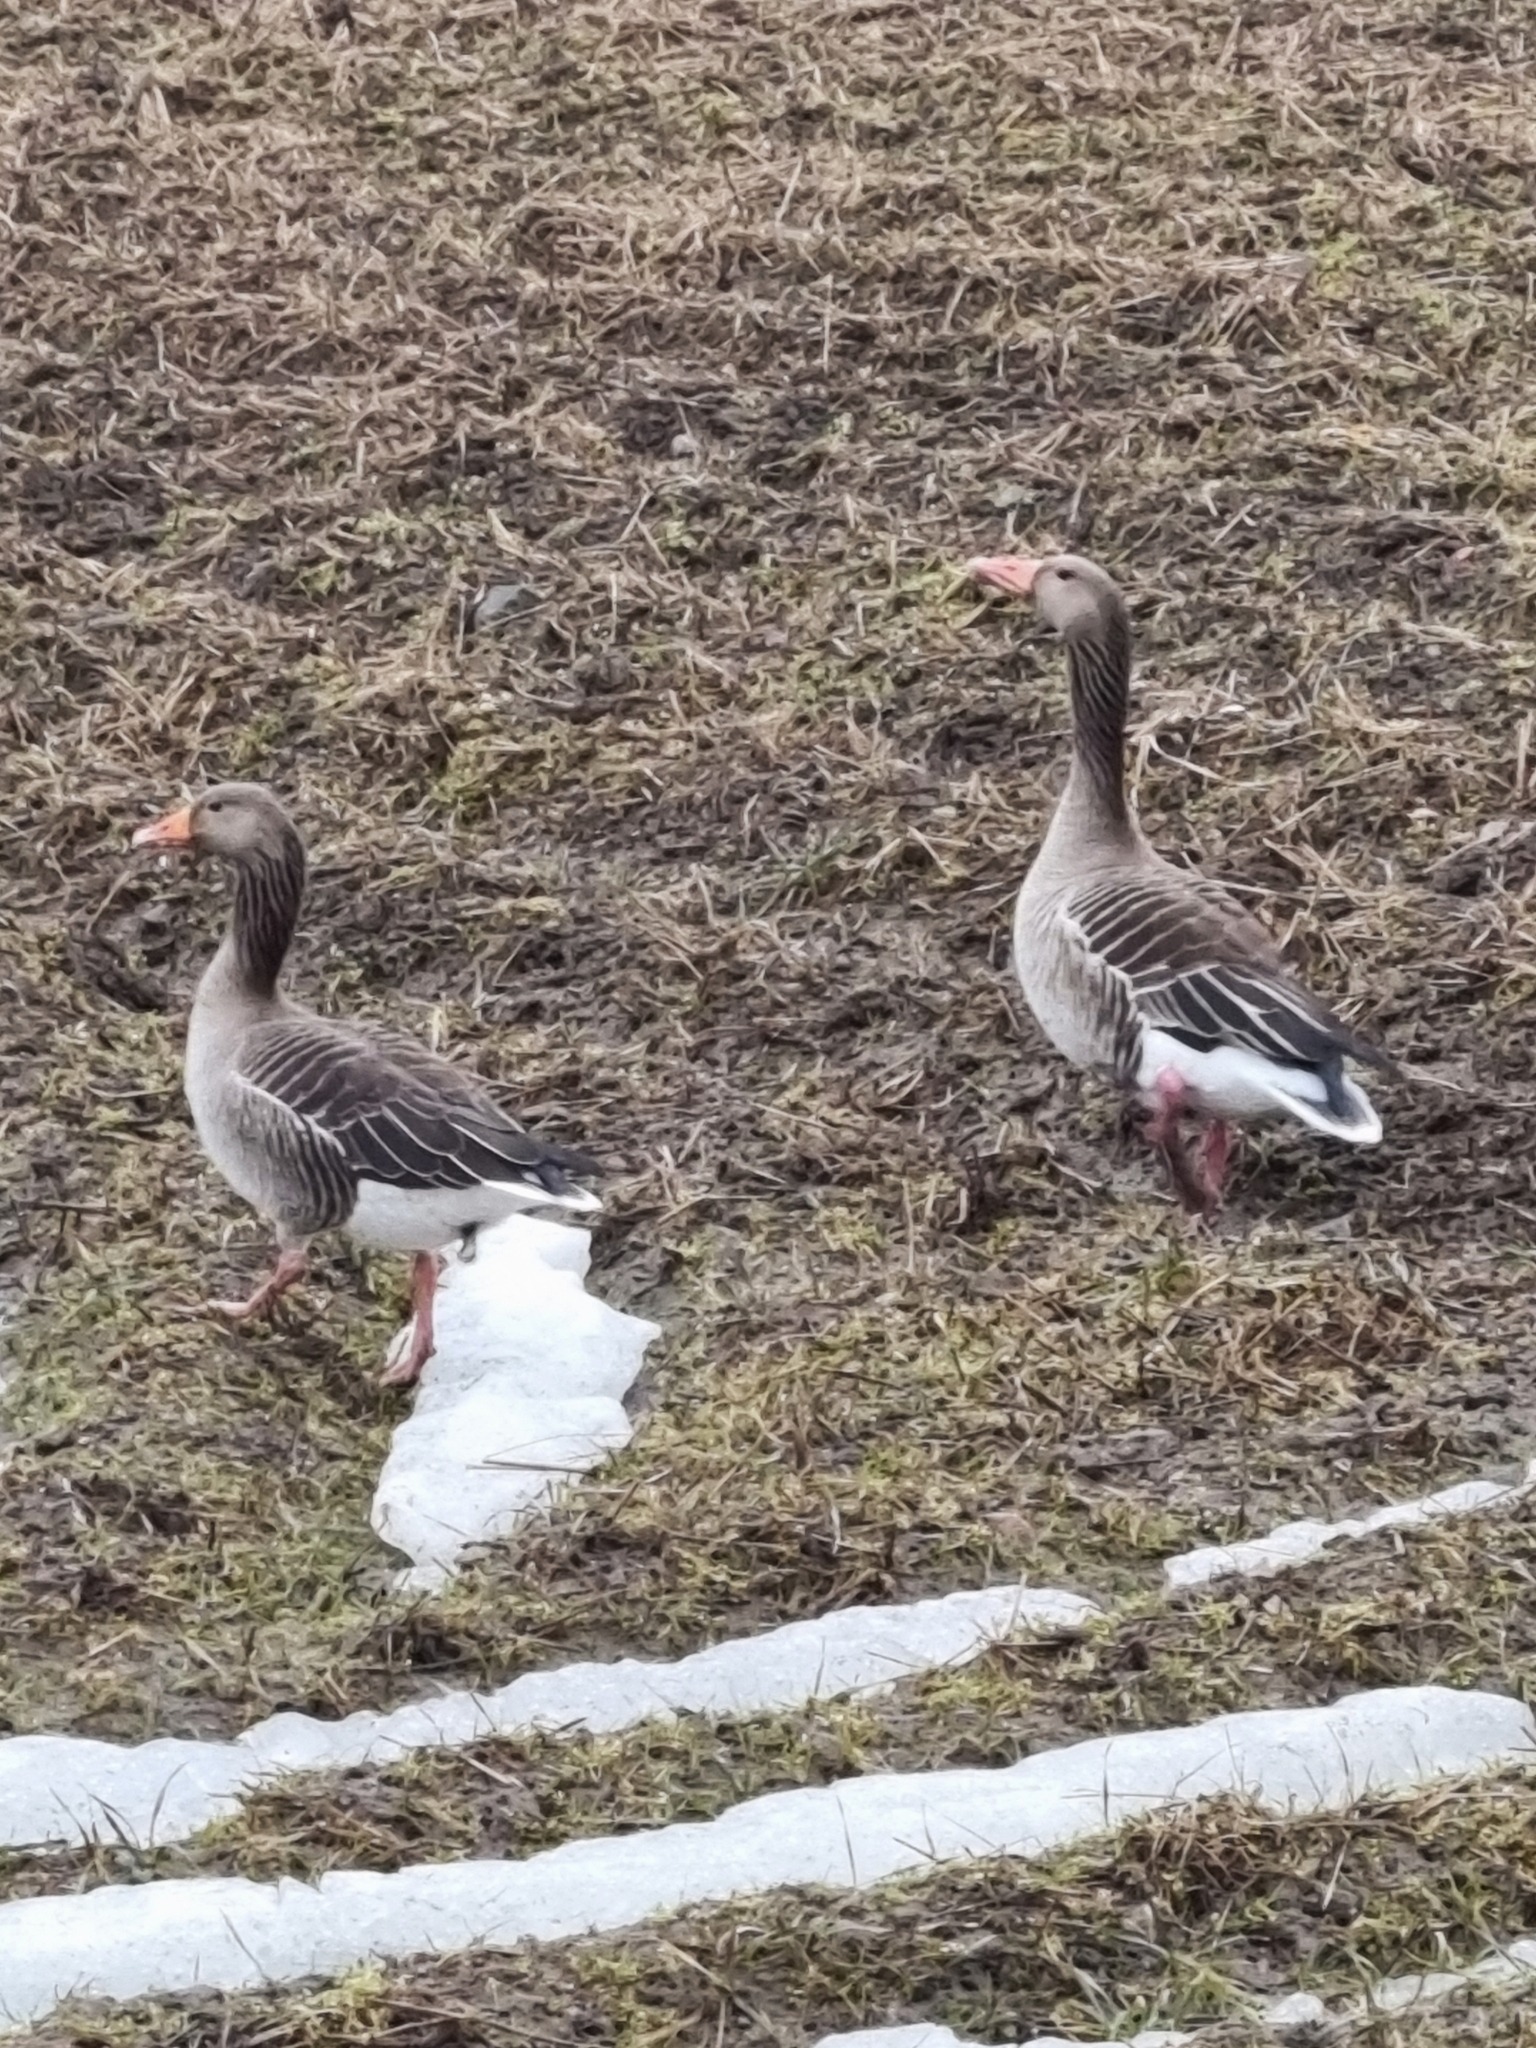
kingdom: Animalia
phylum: Chordata
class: Aves
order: Anseriformes
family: Anatidae
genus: Anser
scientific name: Anser anser
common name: Greylag goose
